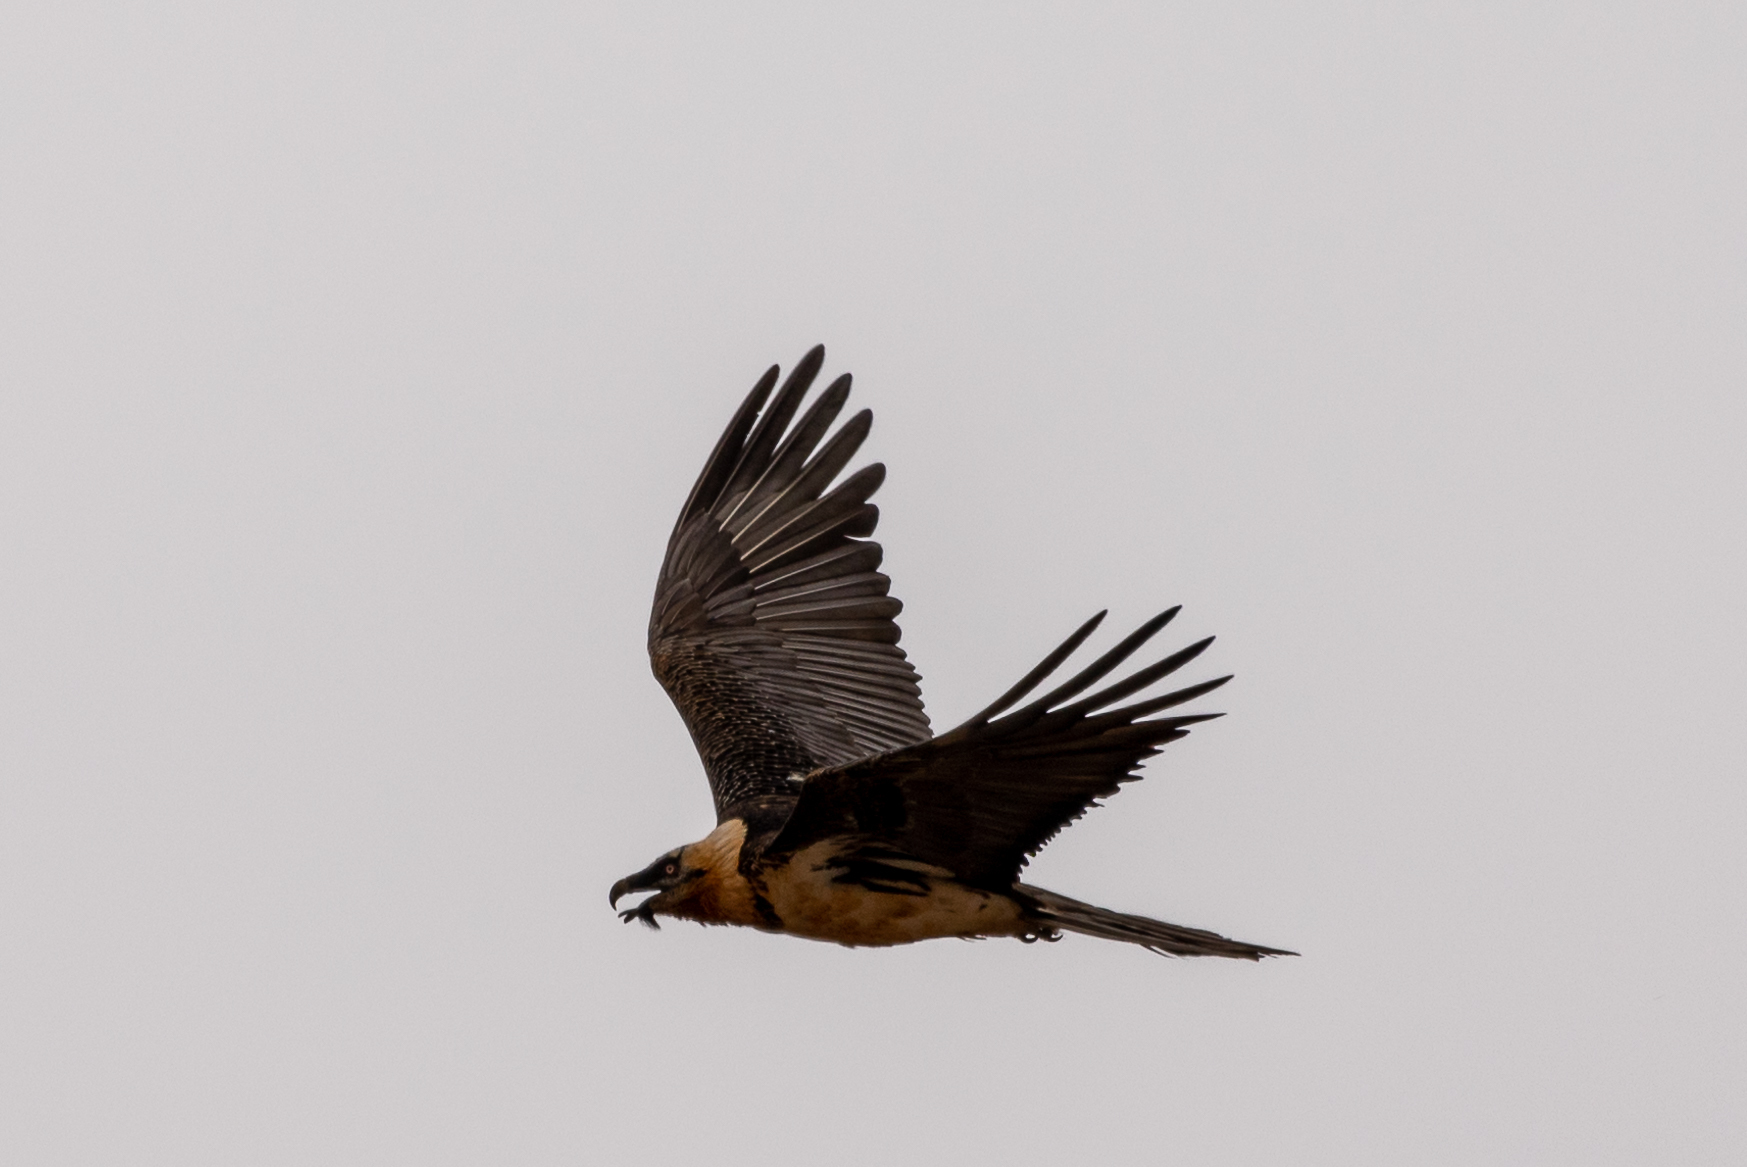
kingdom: Animalia
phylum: Chordata
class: Aves
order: Accipitriformes
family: Accipitridae
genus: Gypaetus
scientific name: Gypaetus barbatus
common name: Bearded vulture
